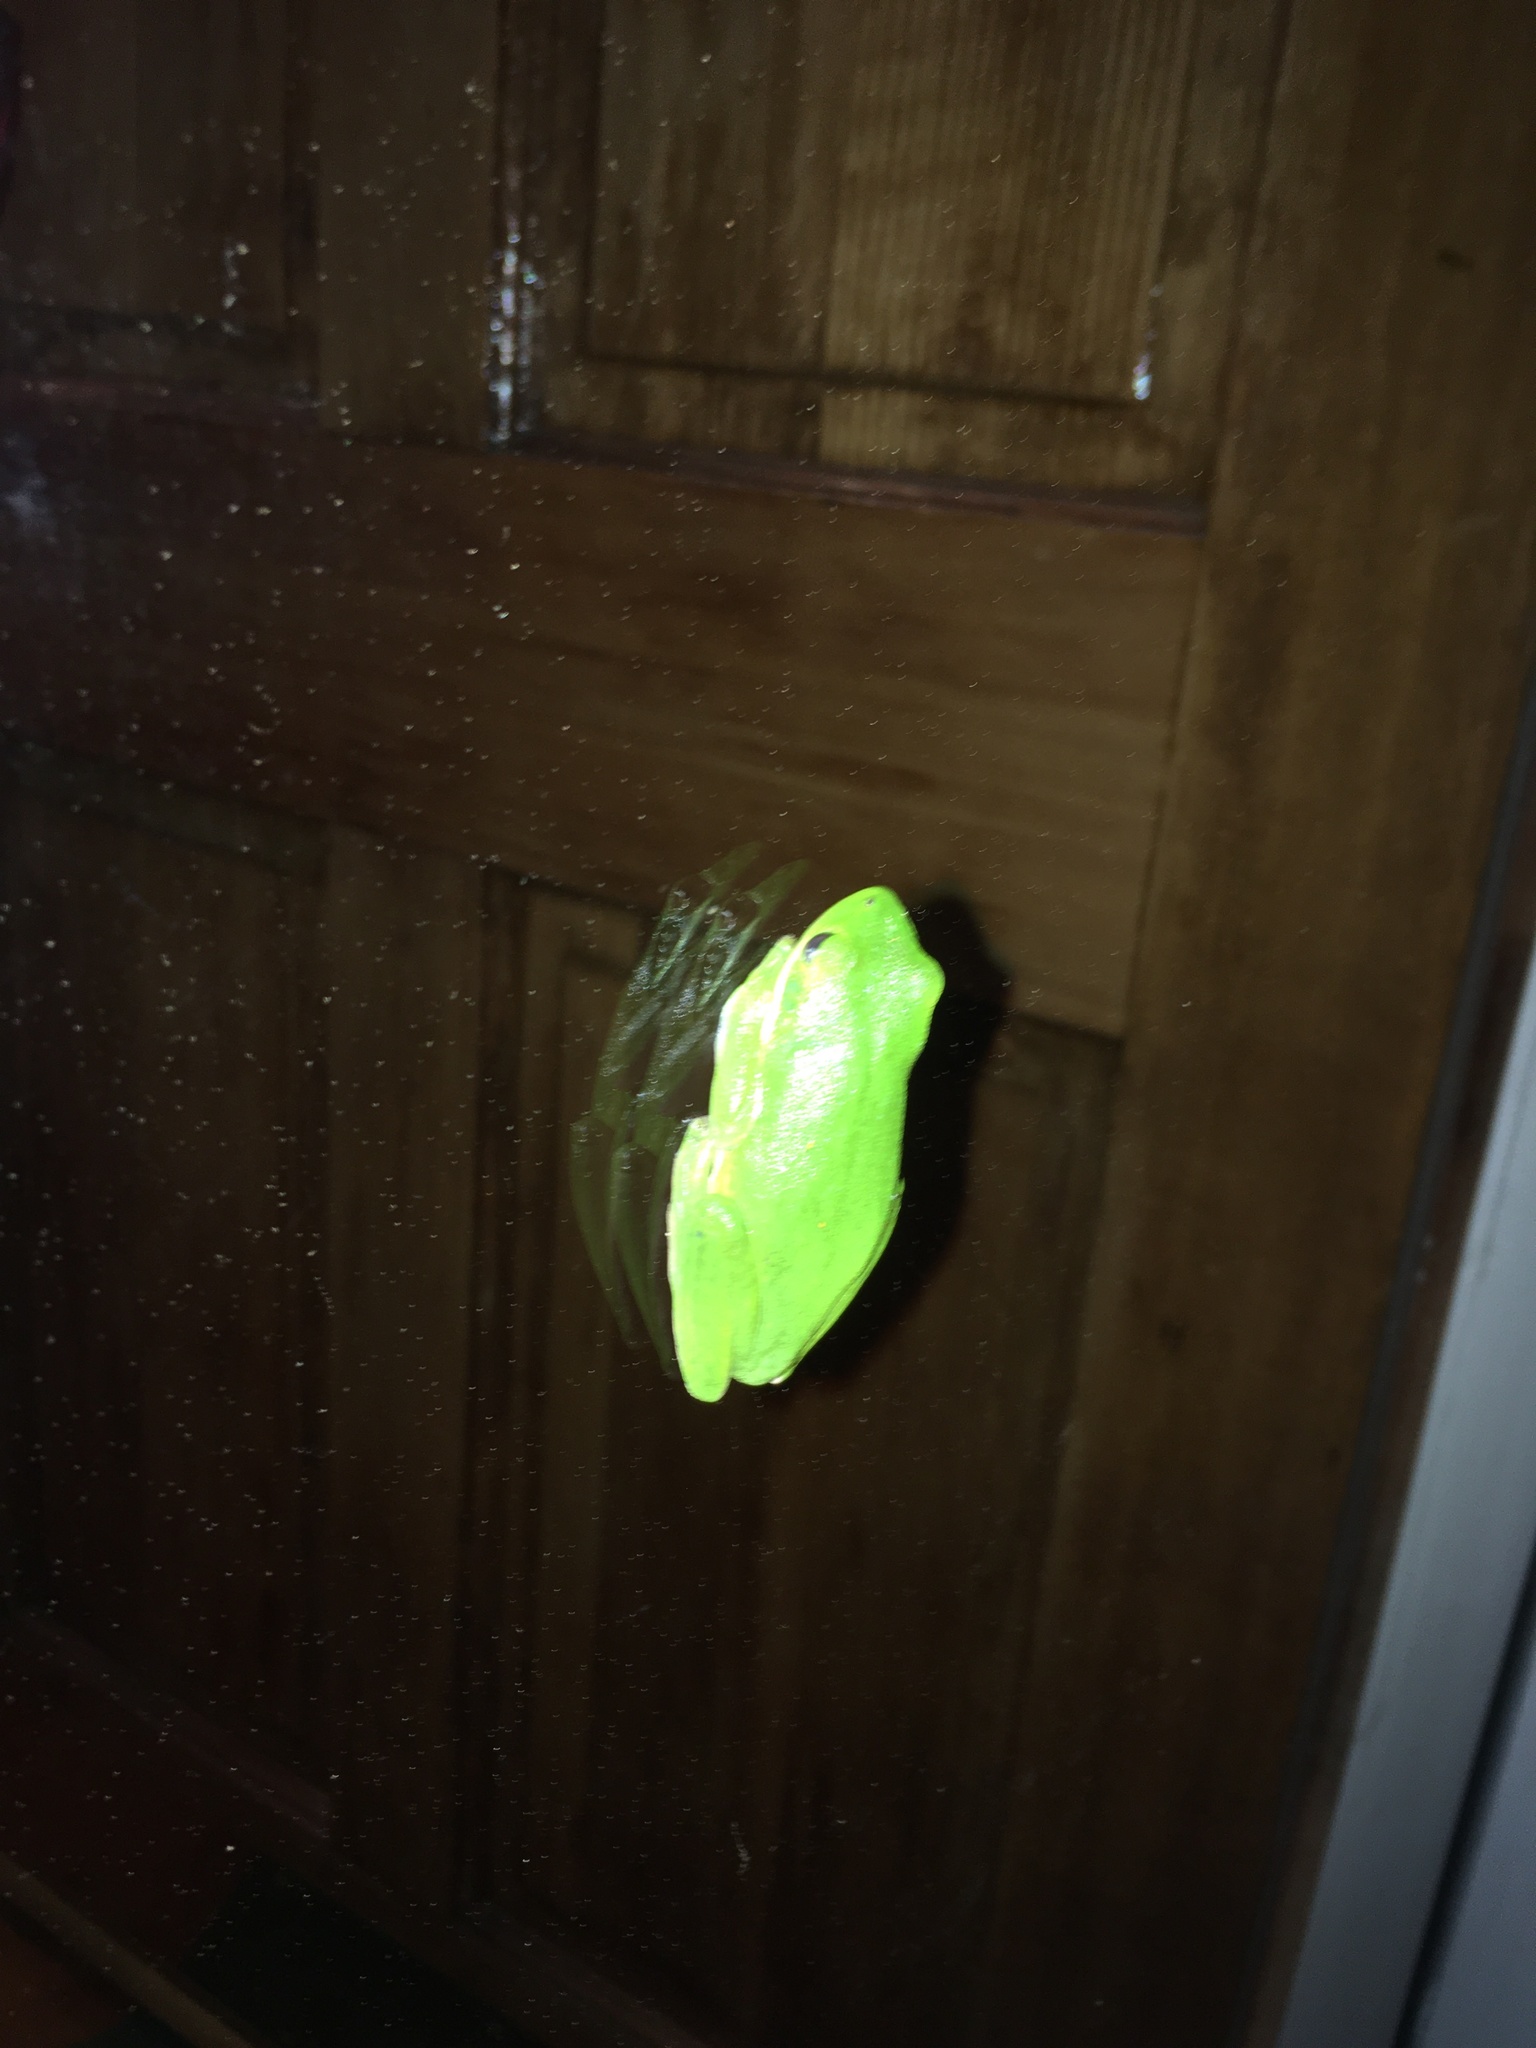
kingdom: Animalia
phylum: Chordata
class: Amphibia
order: Anura
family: Hylidae
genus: Dryophytes
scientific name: Dryophytes cinereus
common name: Green treefrog
